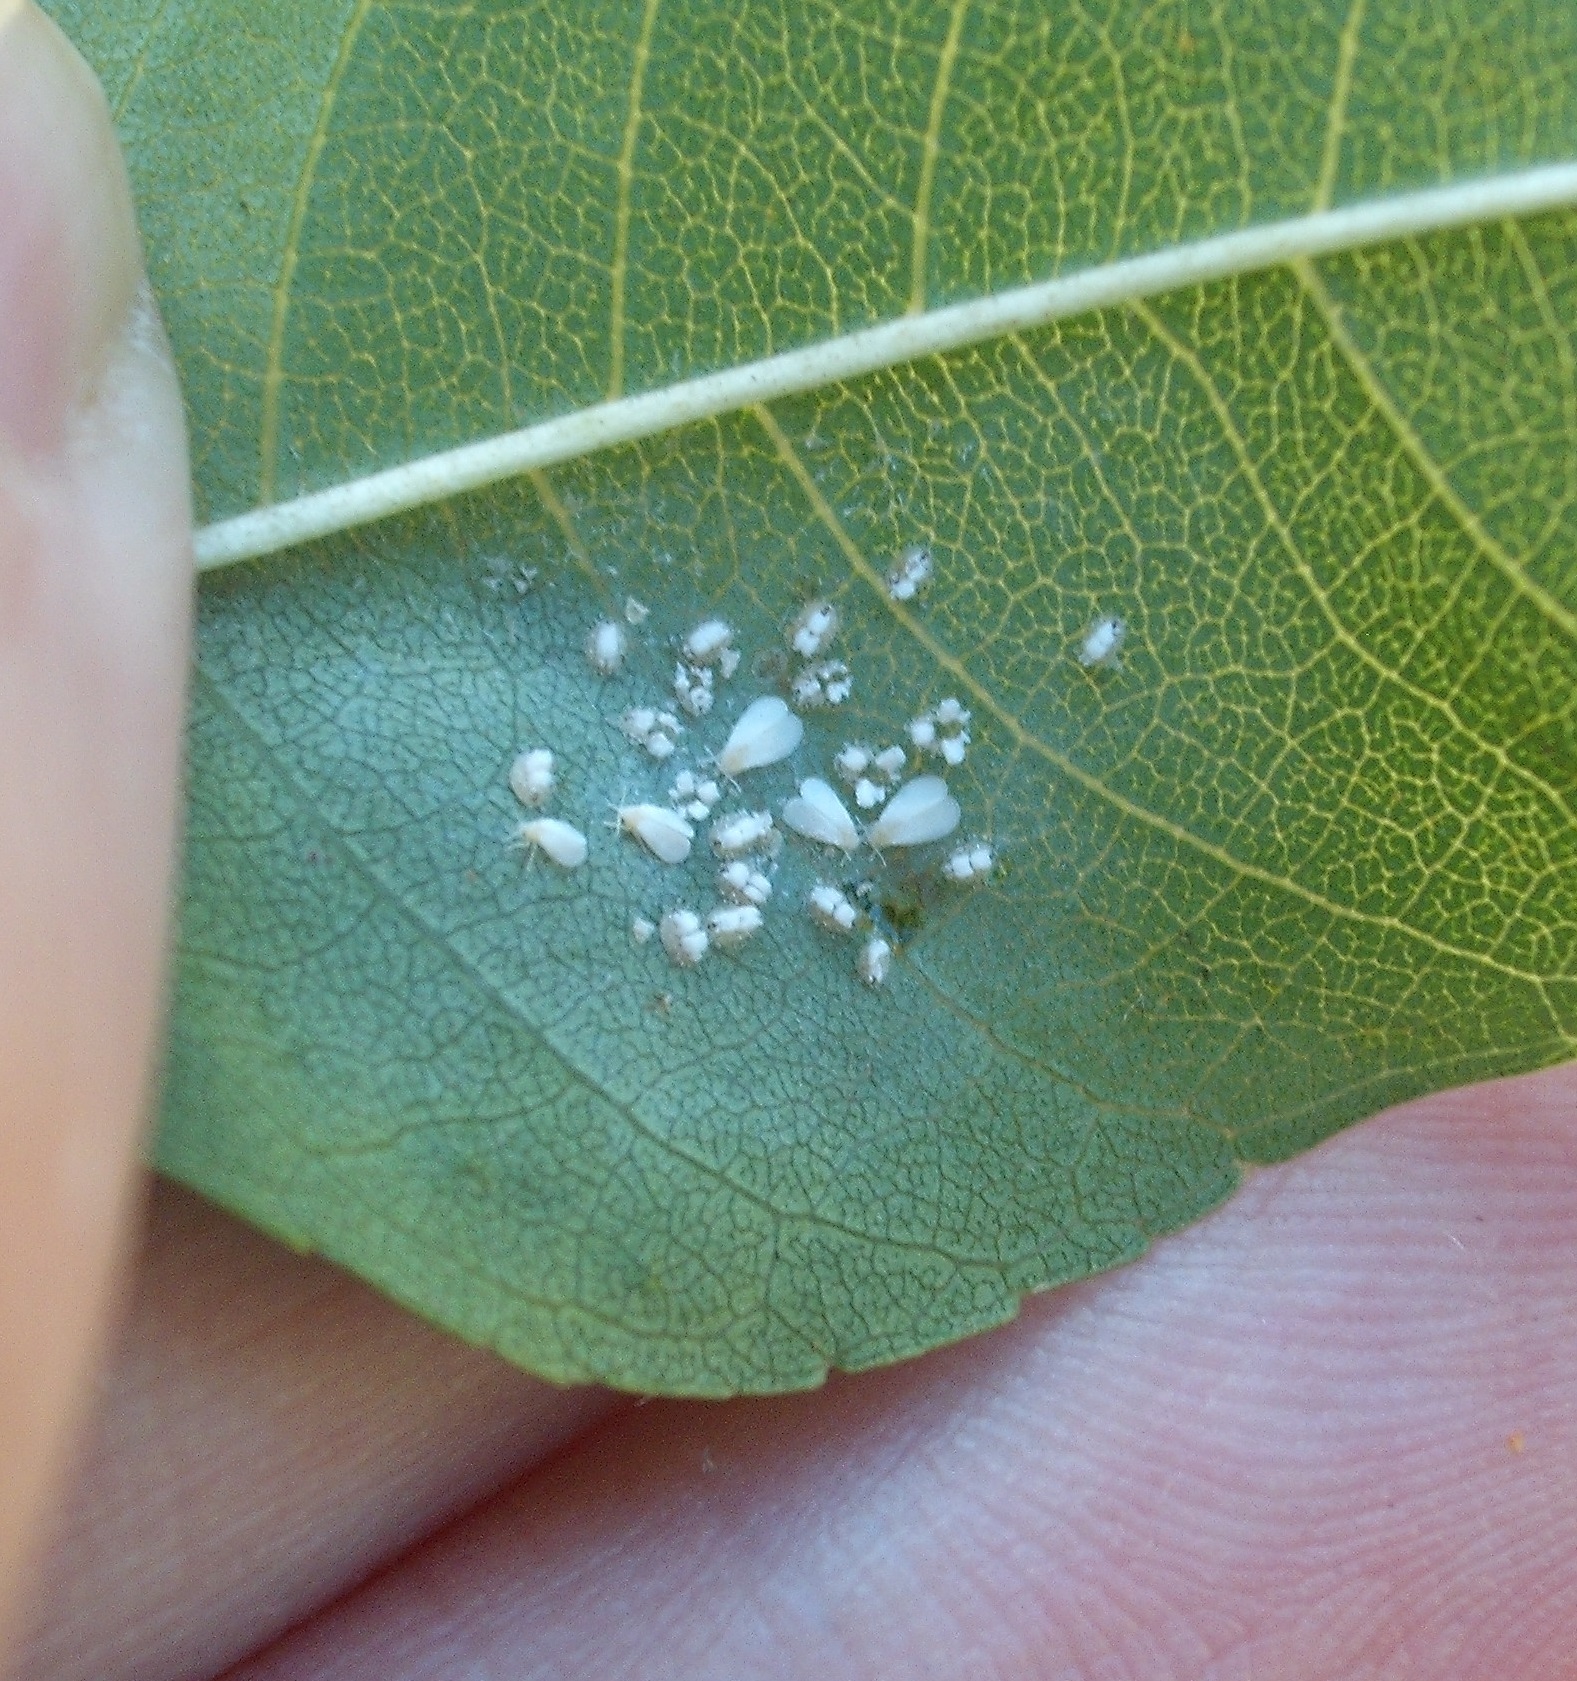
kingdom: Animalia
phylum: Arthropoda
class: Insecta
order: Hemiptera
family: Aleyrodidae
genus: Siphoninus
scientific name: Siphoninus phillyreae
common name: Ash whitefly
